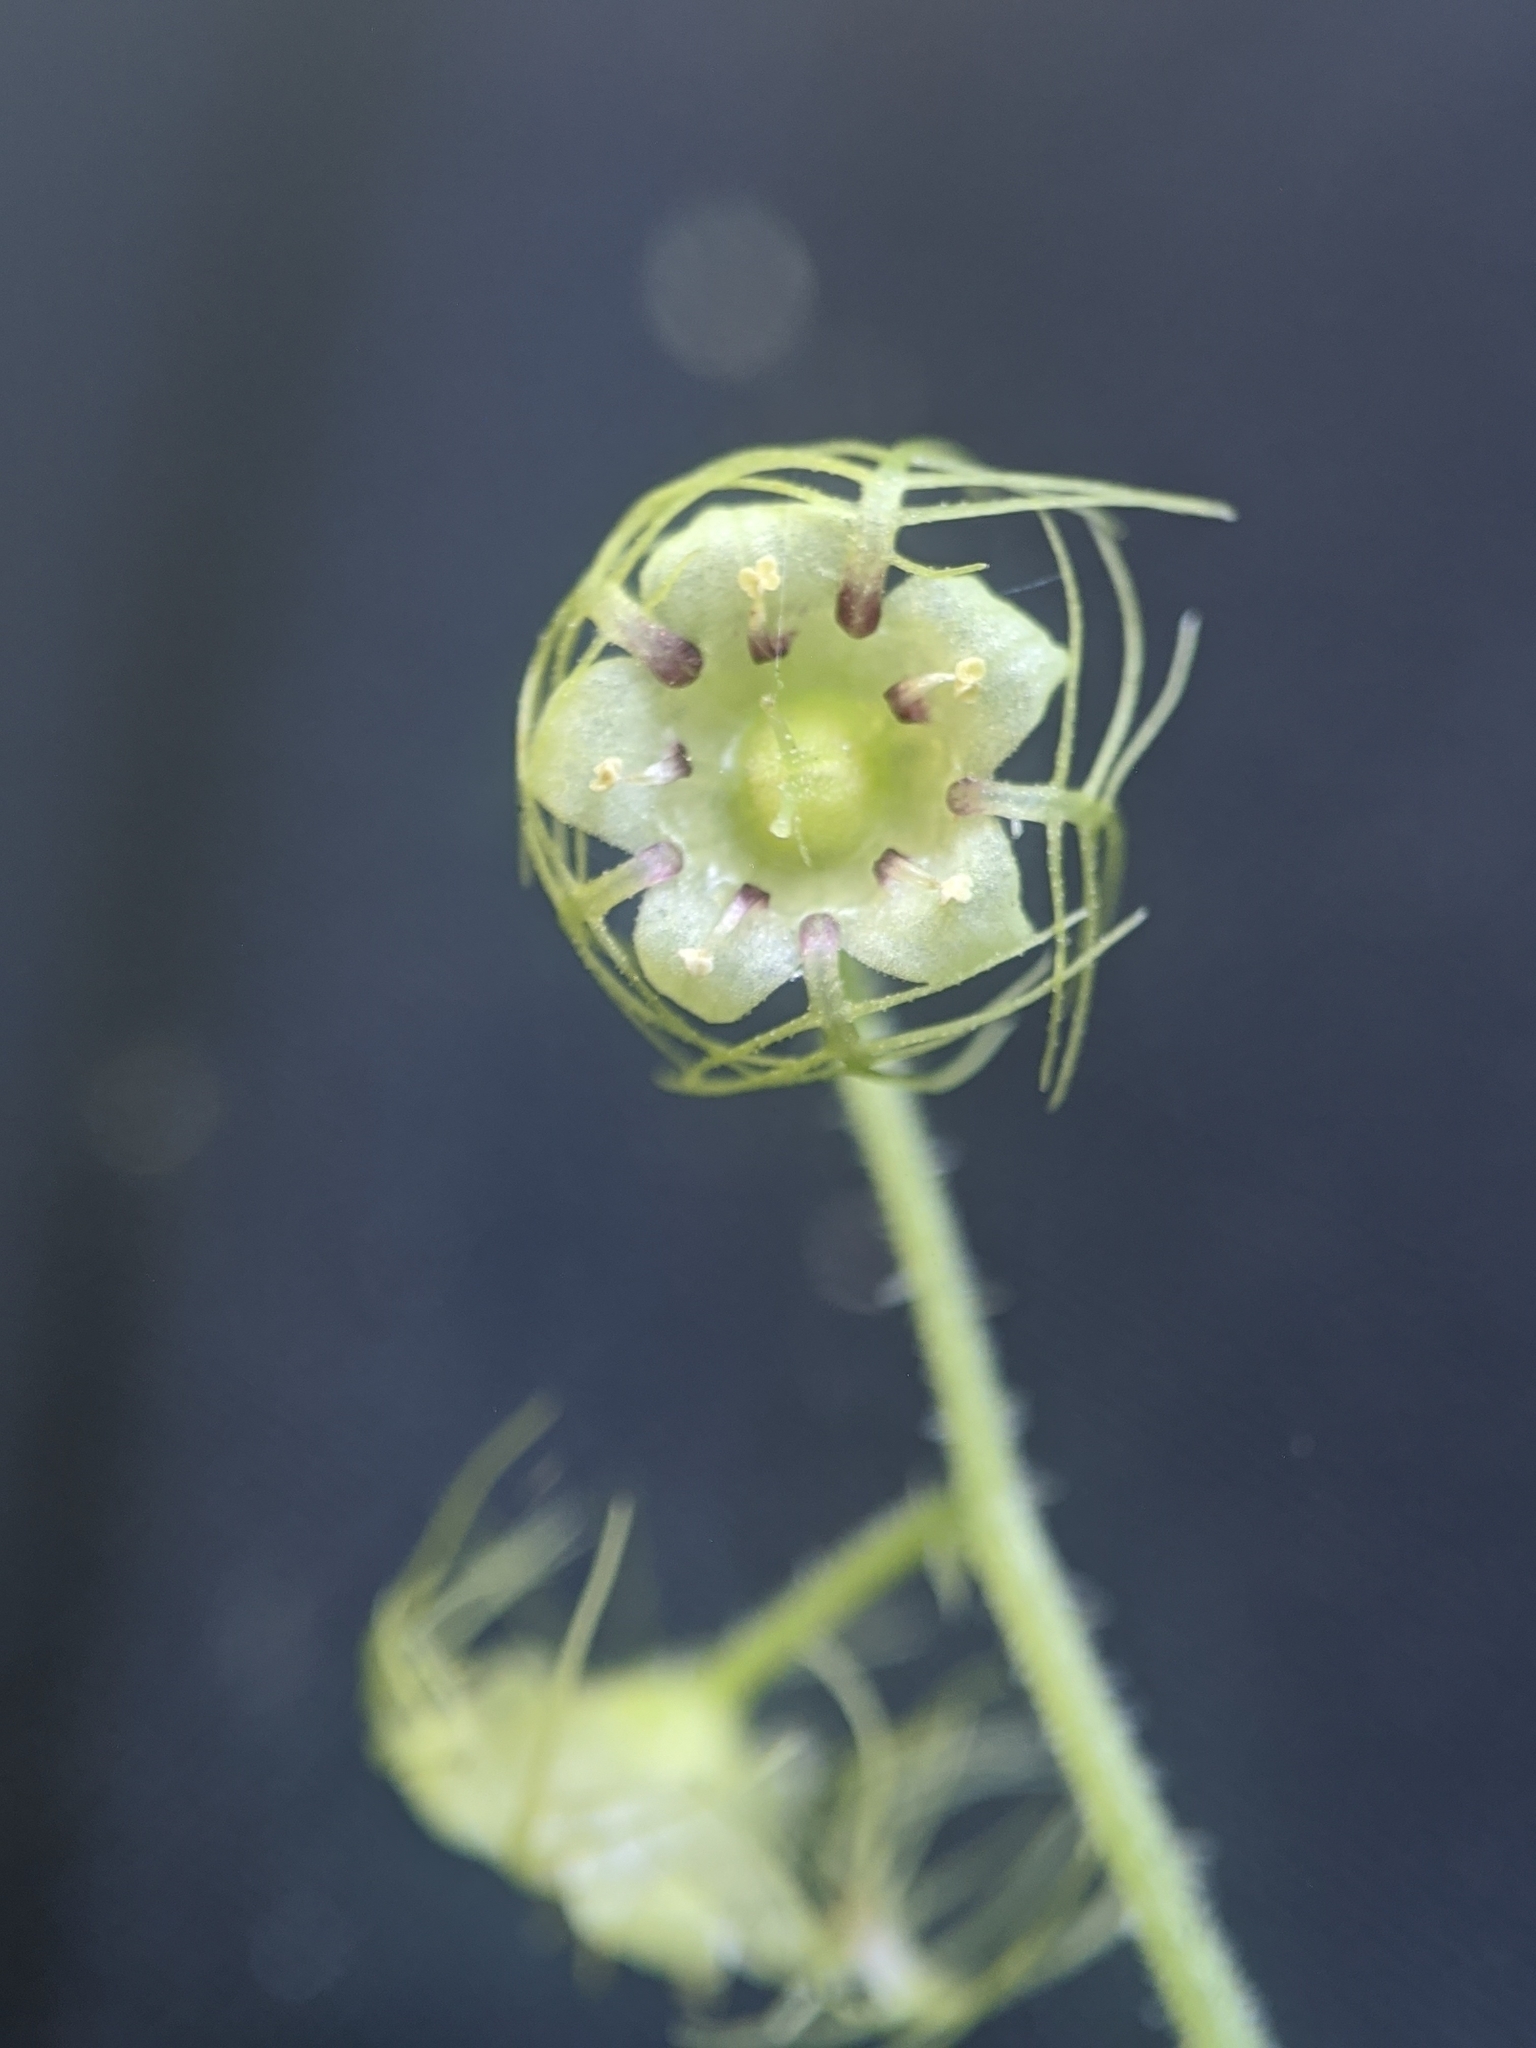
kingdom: Plantae
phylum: Tracheophyta
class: Magnoliopsida
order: Saxifragales
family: Saxifragaceae
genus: Mitellastra
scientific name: Mitellastra caulescens
